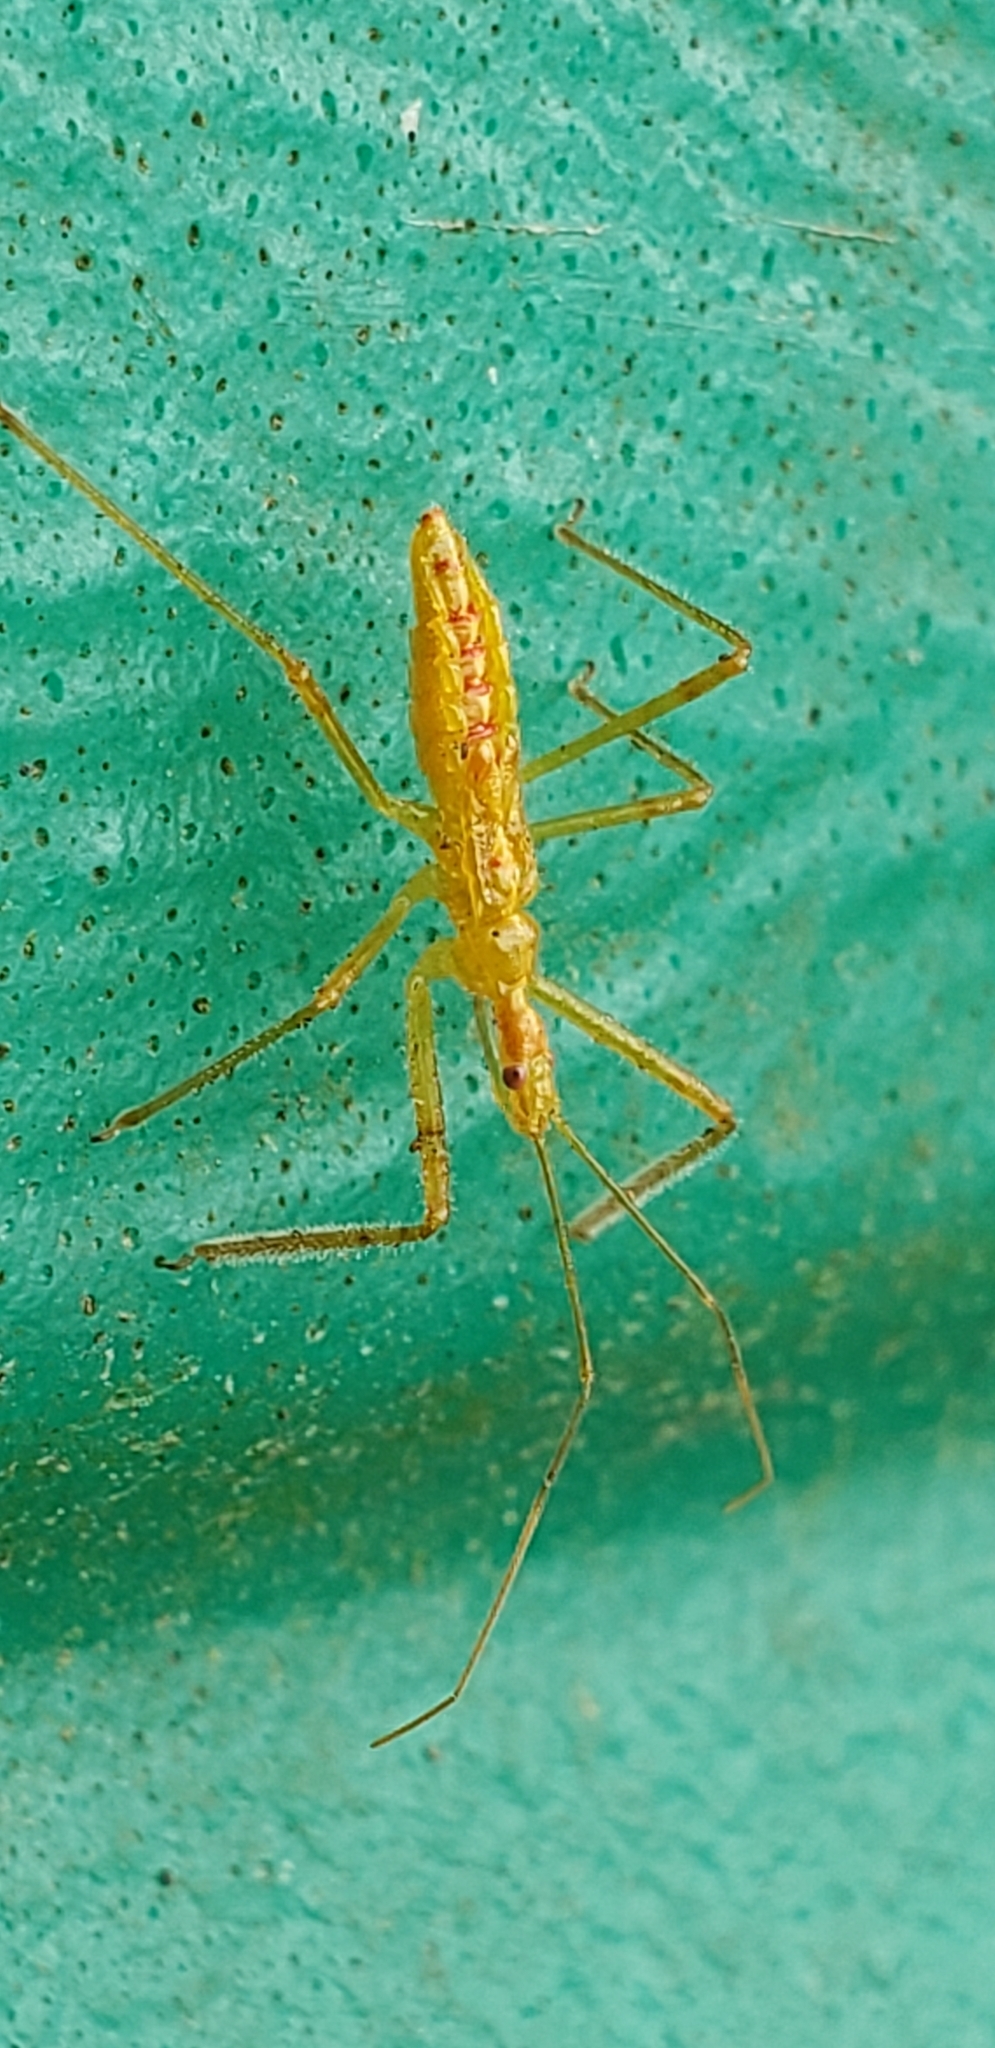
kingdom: Animalia
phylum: Arthropoda
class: Insecta
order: Hemiptera
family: Reduviidae
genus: Zelus
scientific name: Zelus luridus
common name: Pale green assassin bug
